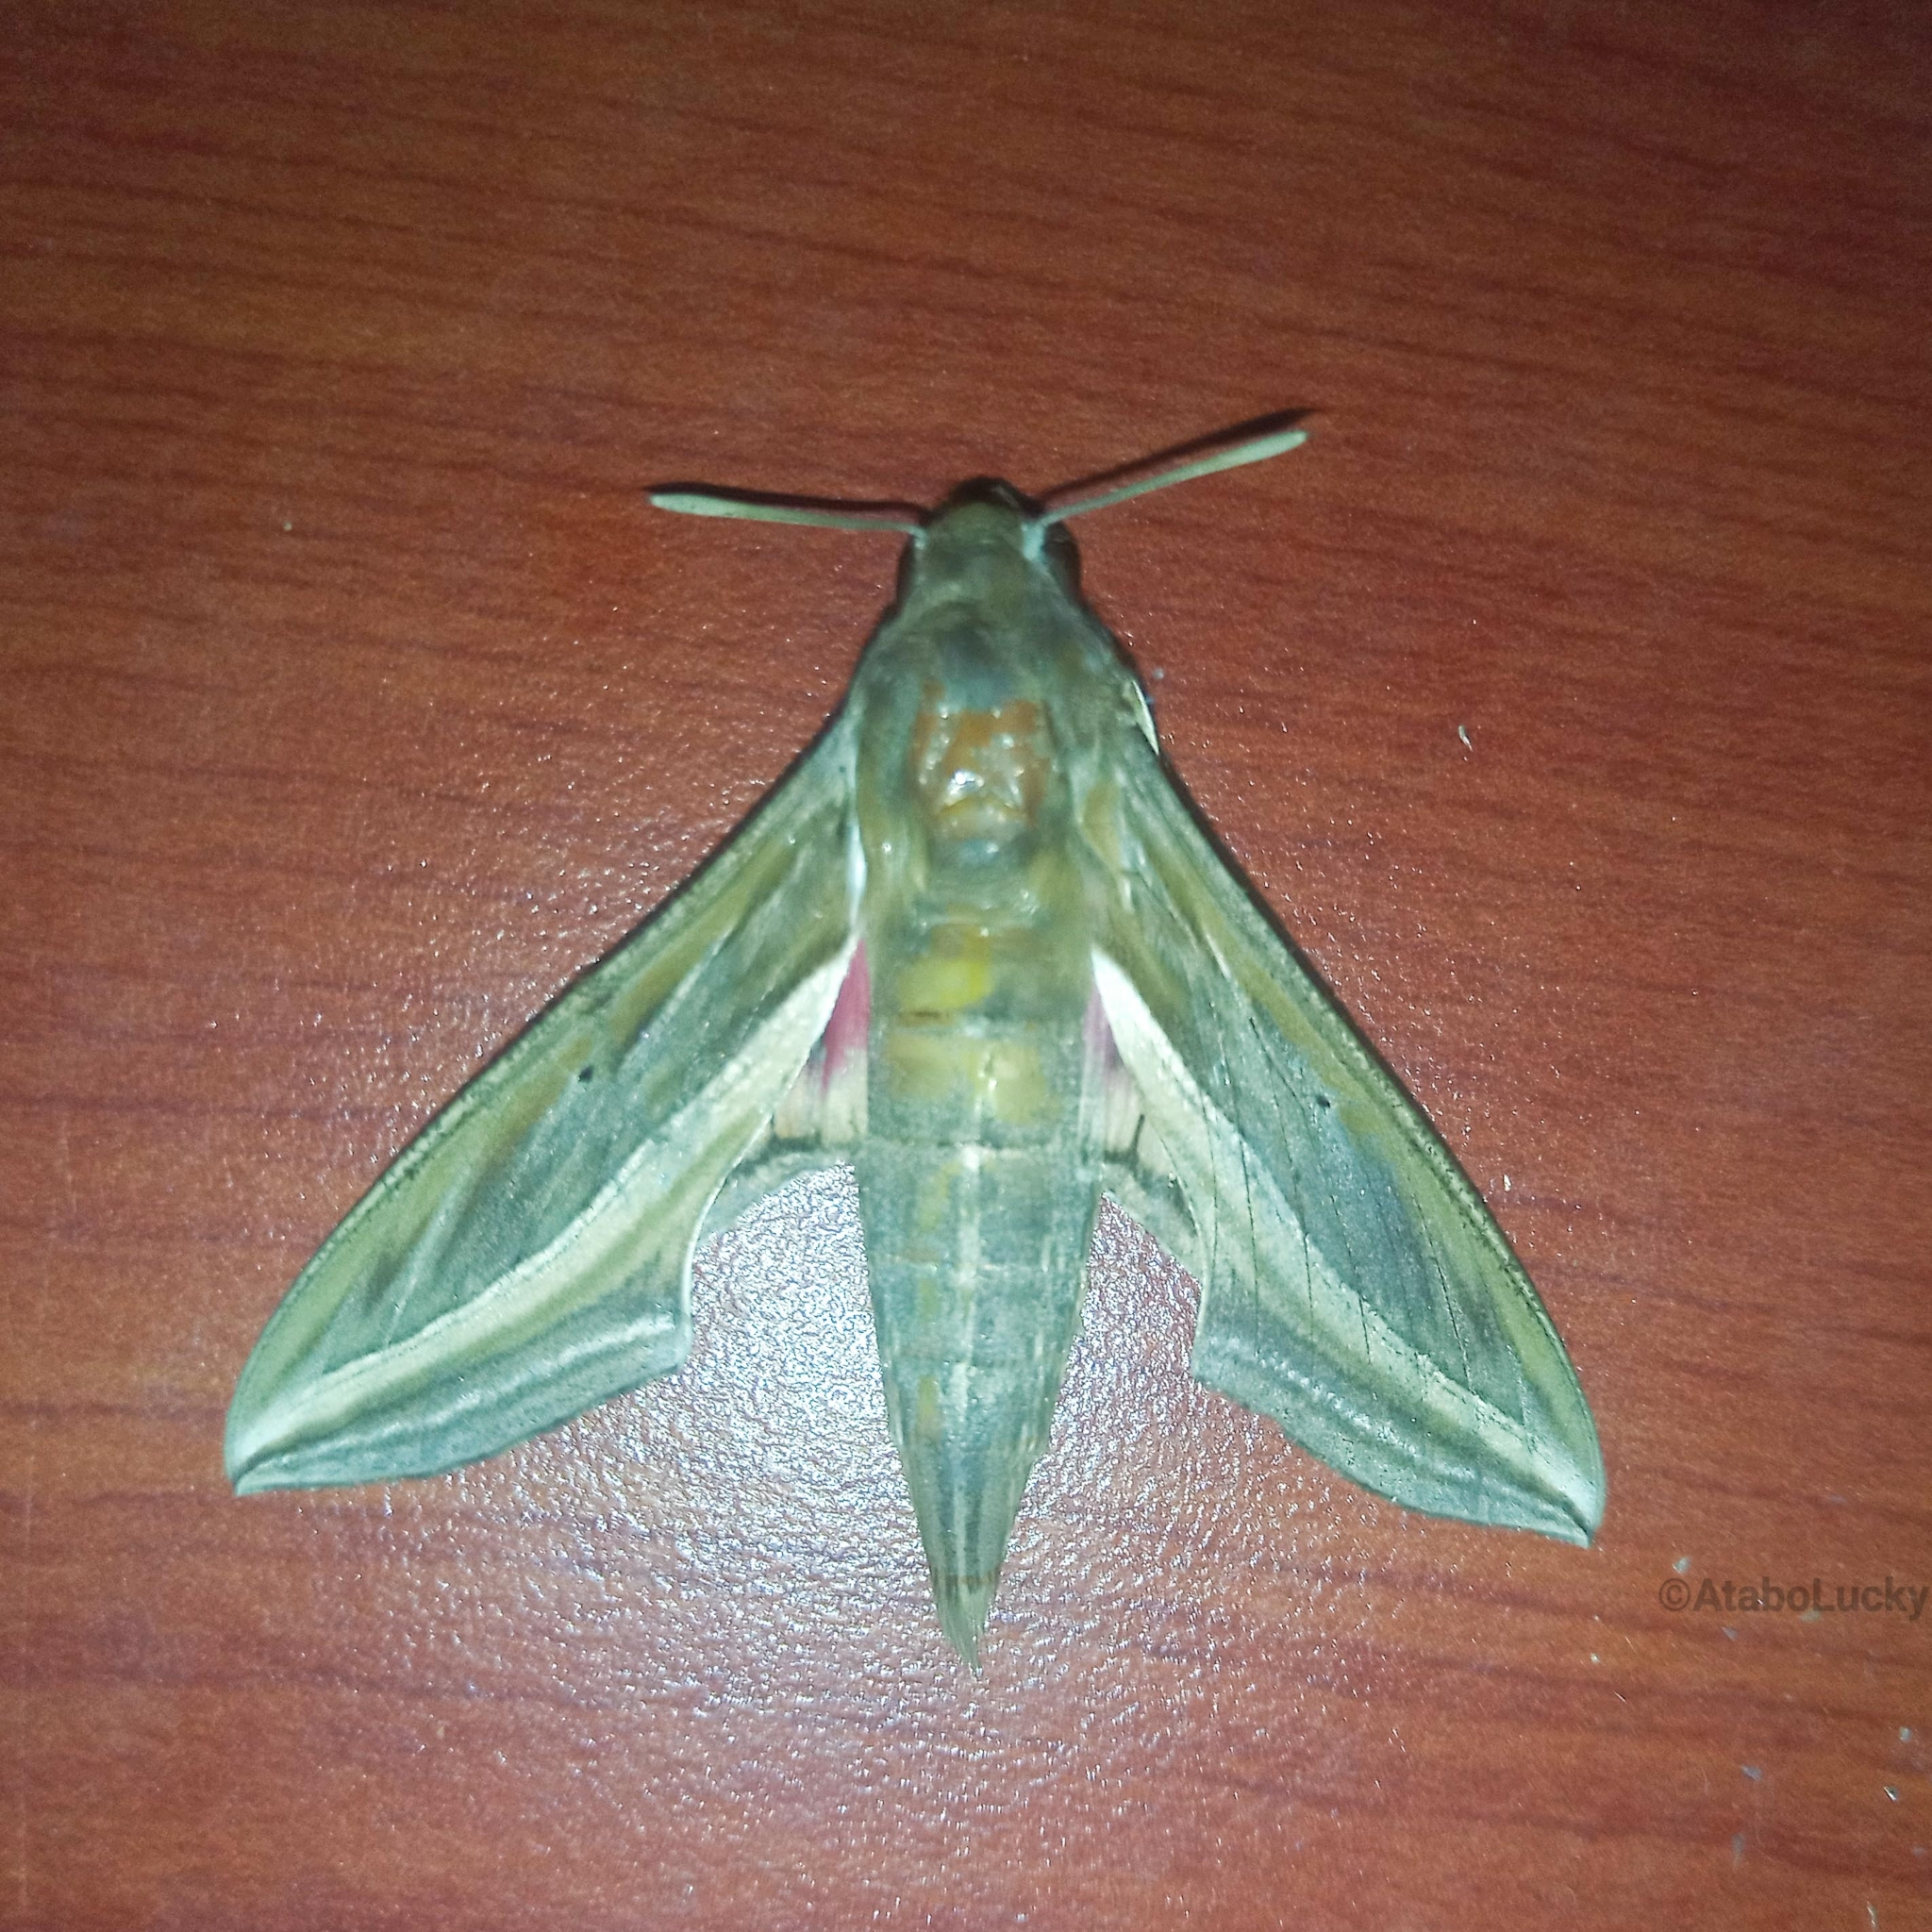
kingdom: Animalia
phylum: Arthropoda
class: Insecta
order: Lepidoptera
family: Sphingidae
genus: Hippotion
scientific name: Hippotion celerio
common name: Silver-striped hawk-moth
